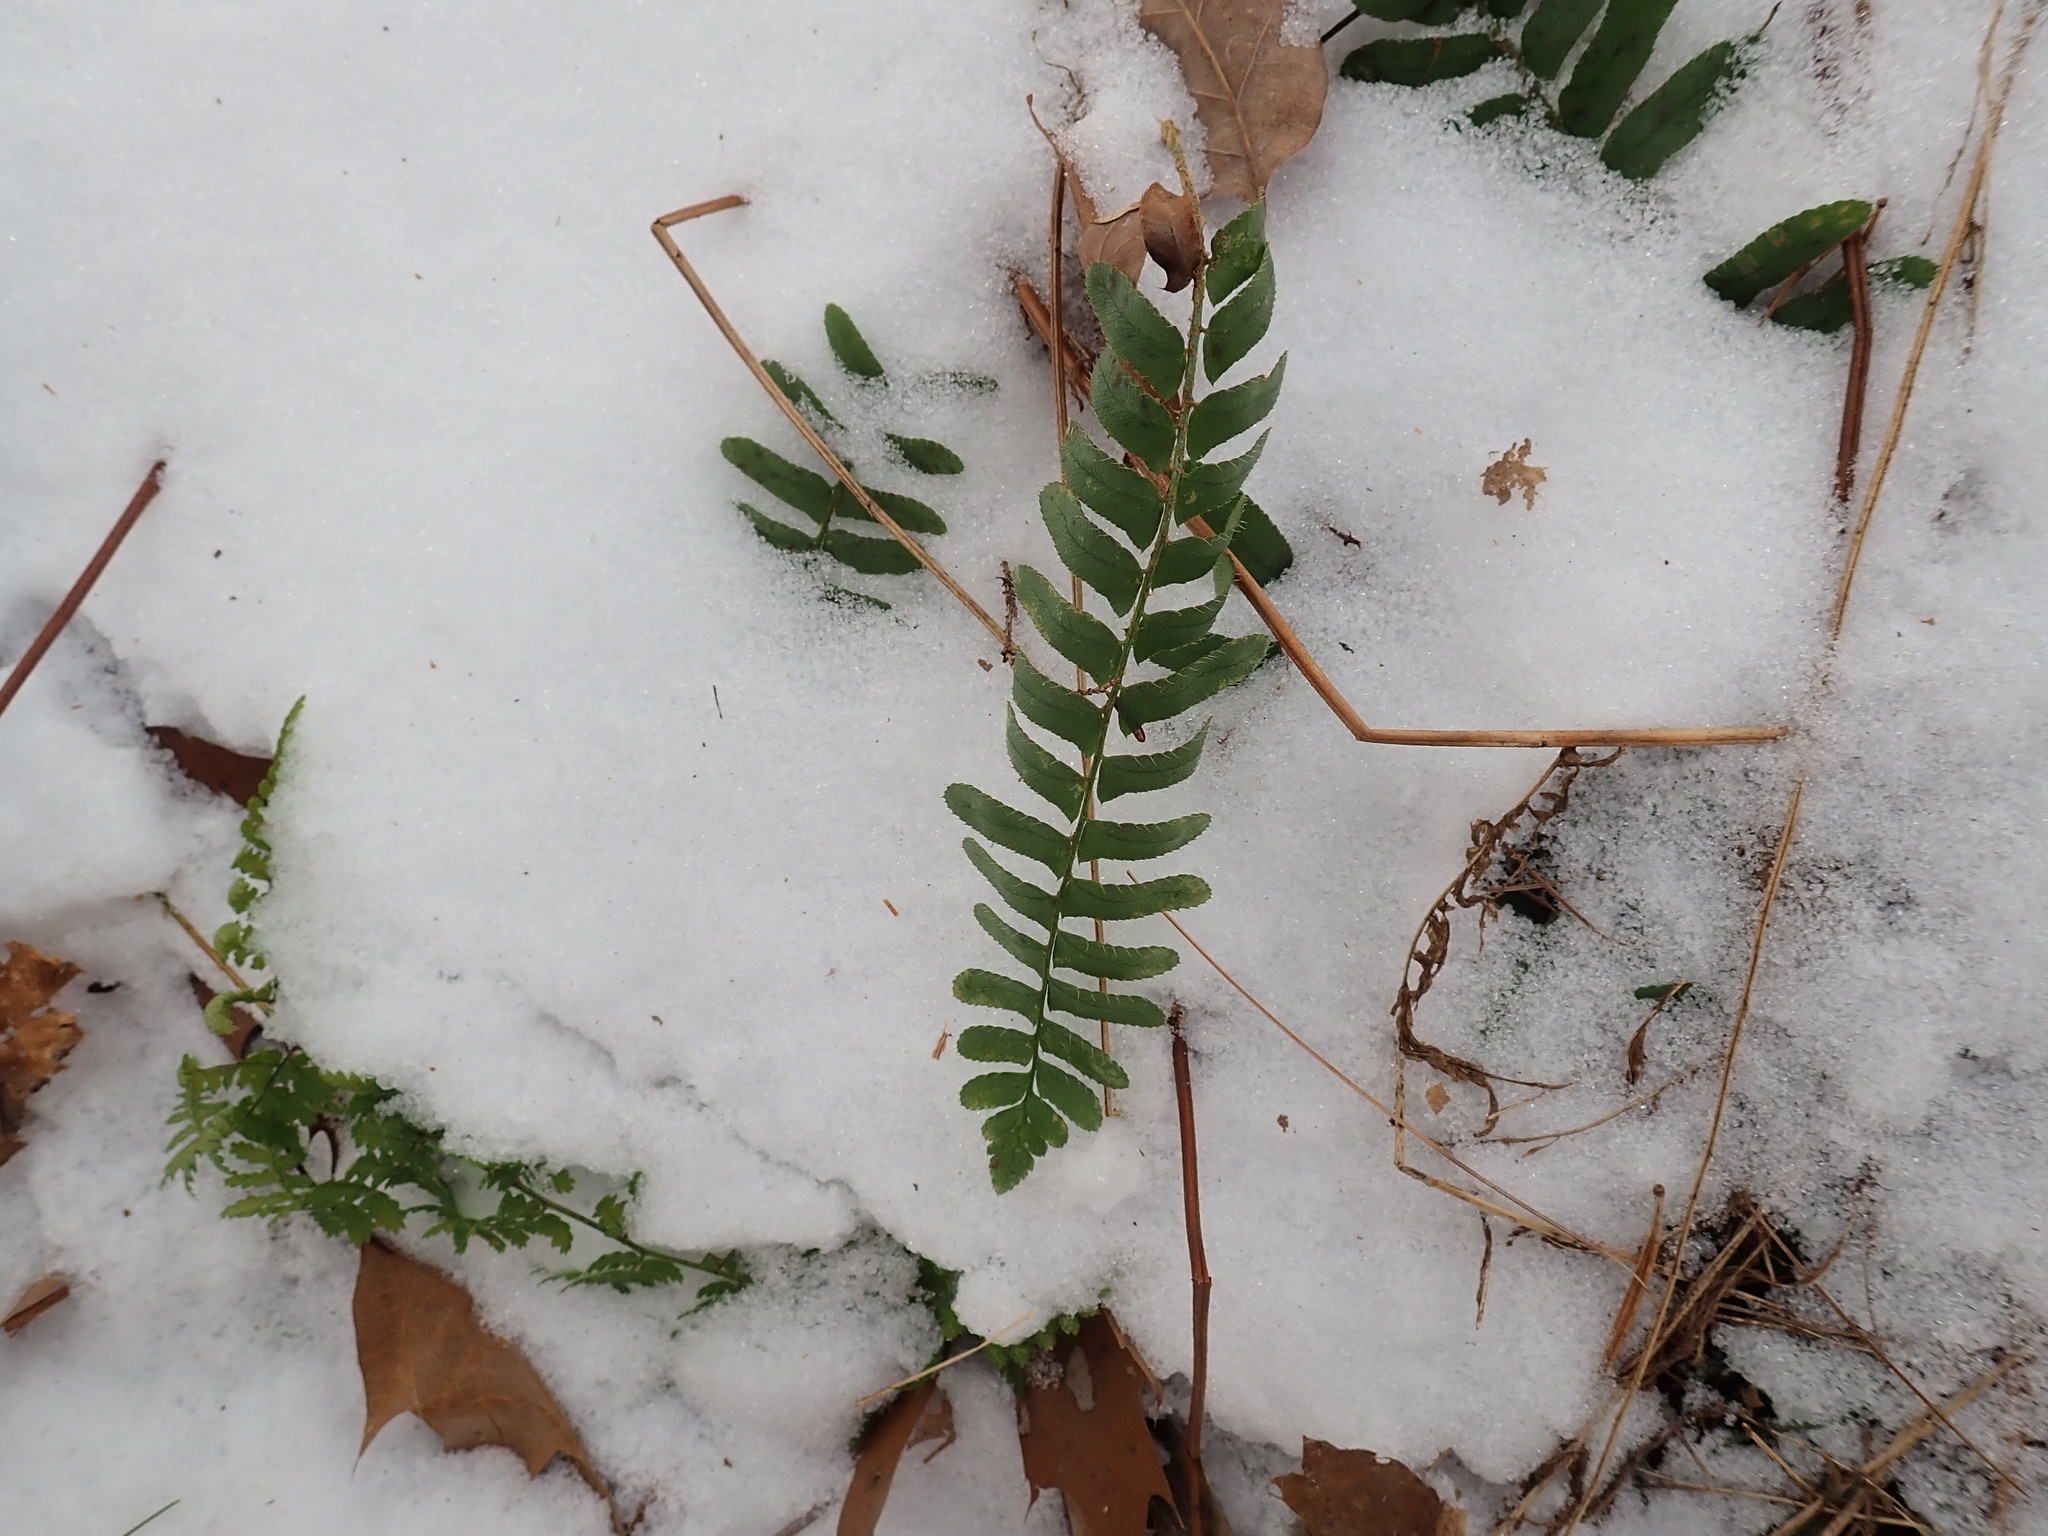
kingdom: Plantae
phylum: Tracheophyta
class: Polypodiopsida
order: Polypodiales
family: Dryopteridaceae
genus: Polystichum
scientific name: Polystichum acrostichoides
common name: Christmas fern
